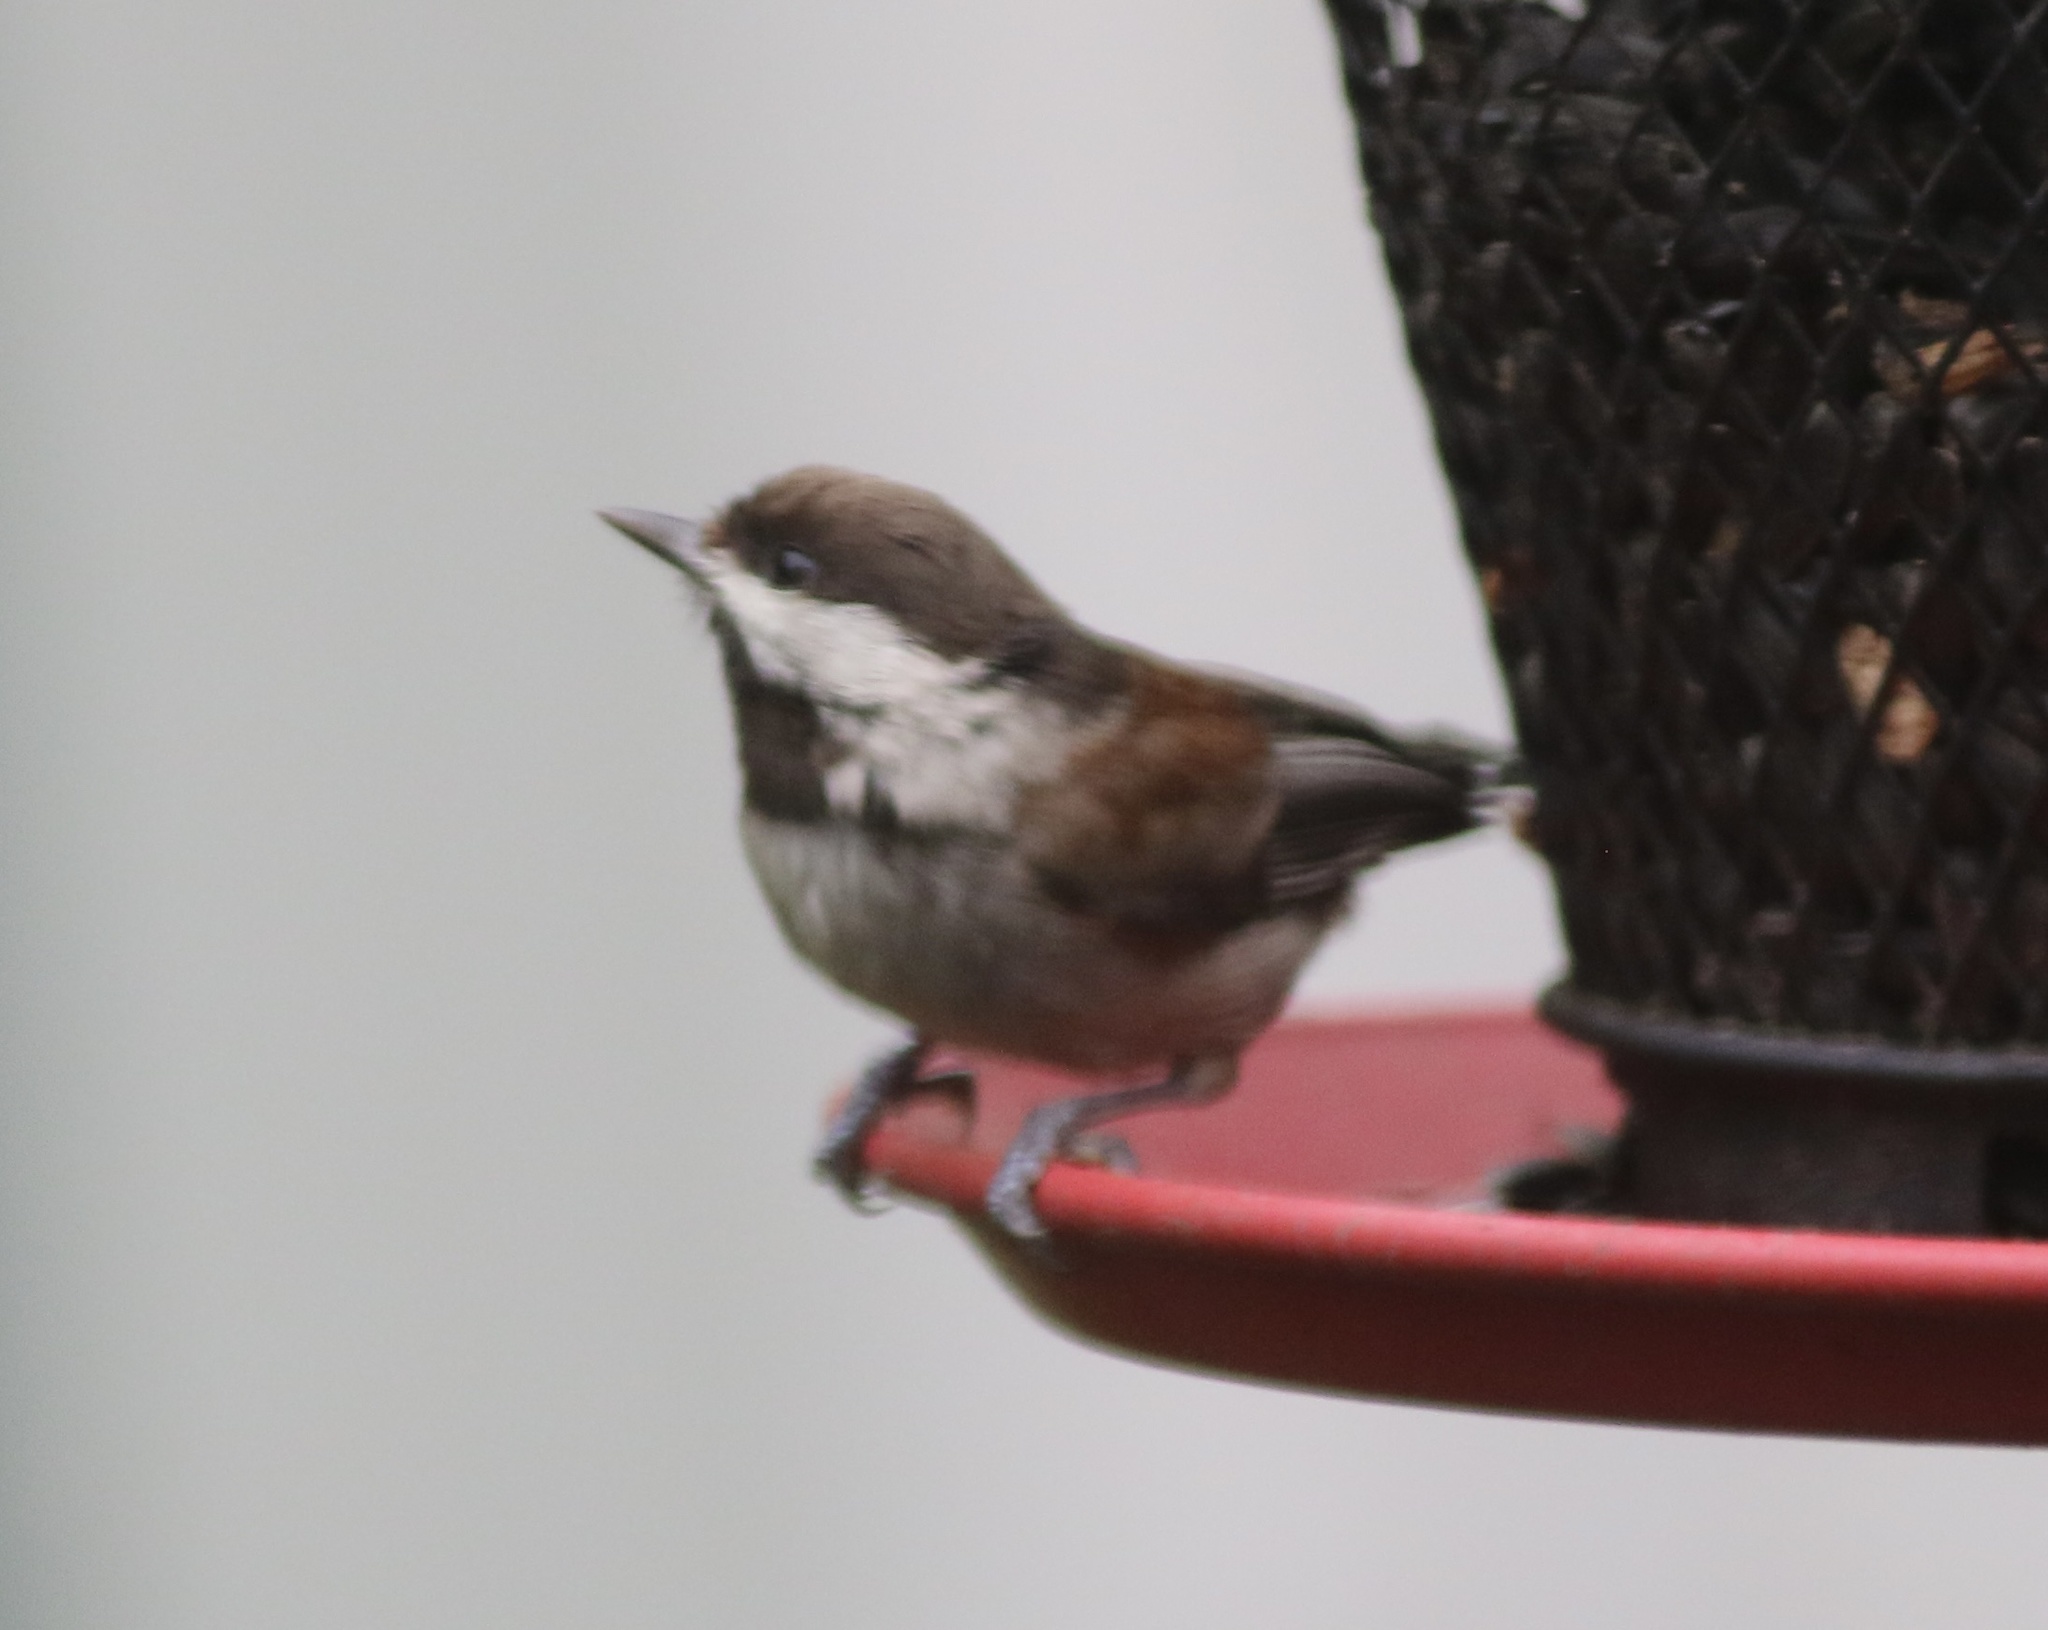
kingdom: Animalia
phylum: Chordata
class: Aves
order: Passeriformes
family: Paridae
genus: Poecile
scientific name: Poecile rufescens
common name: Chestnut-backed chickadee
